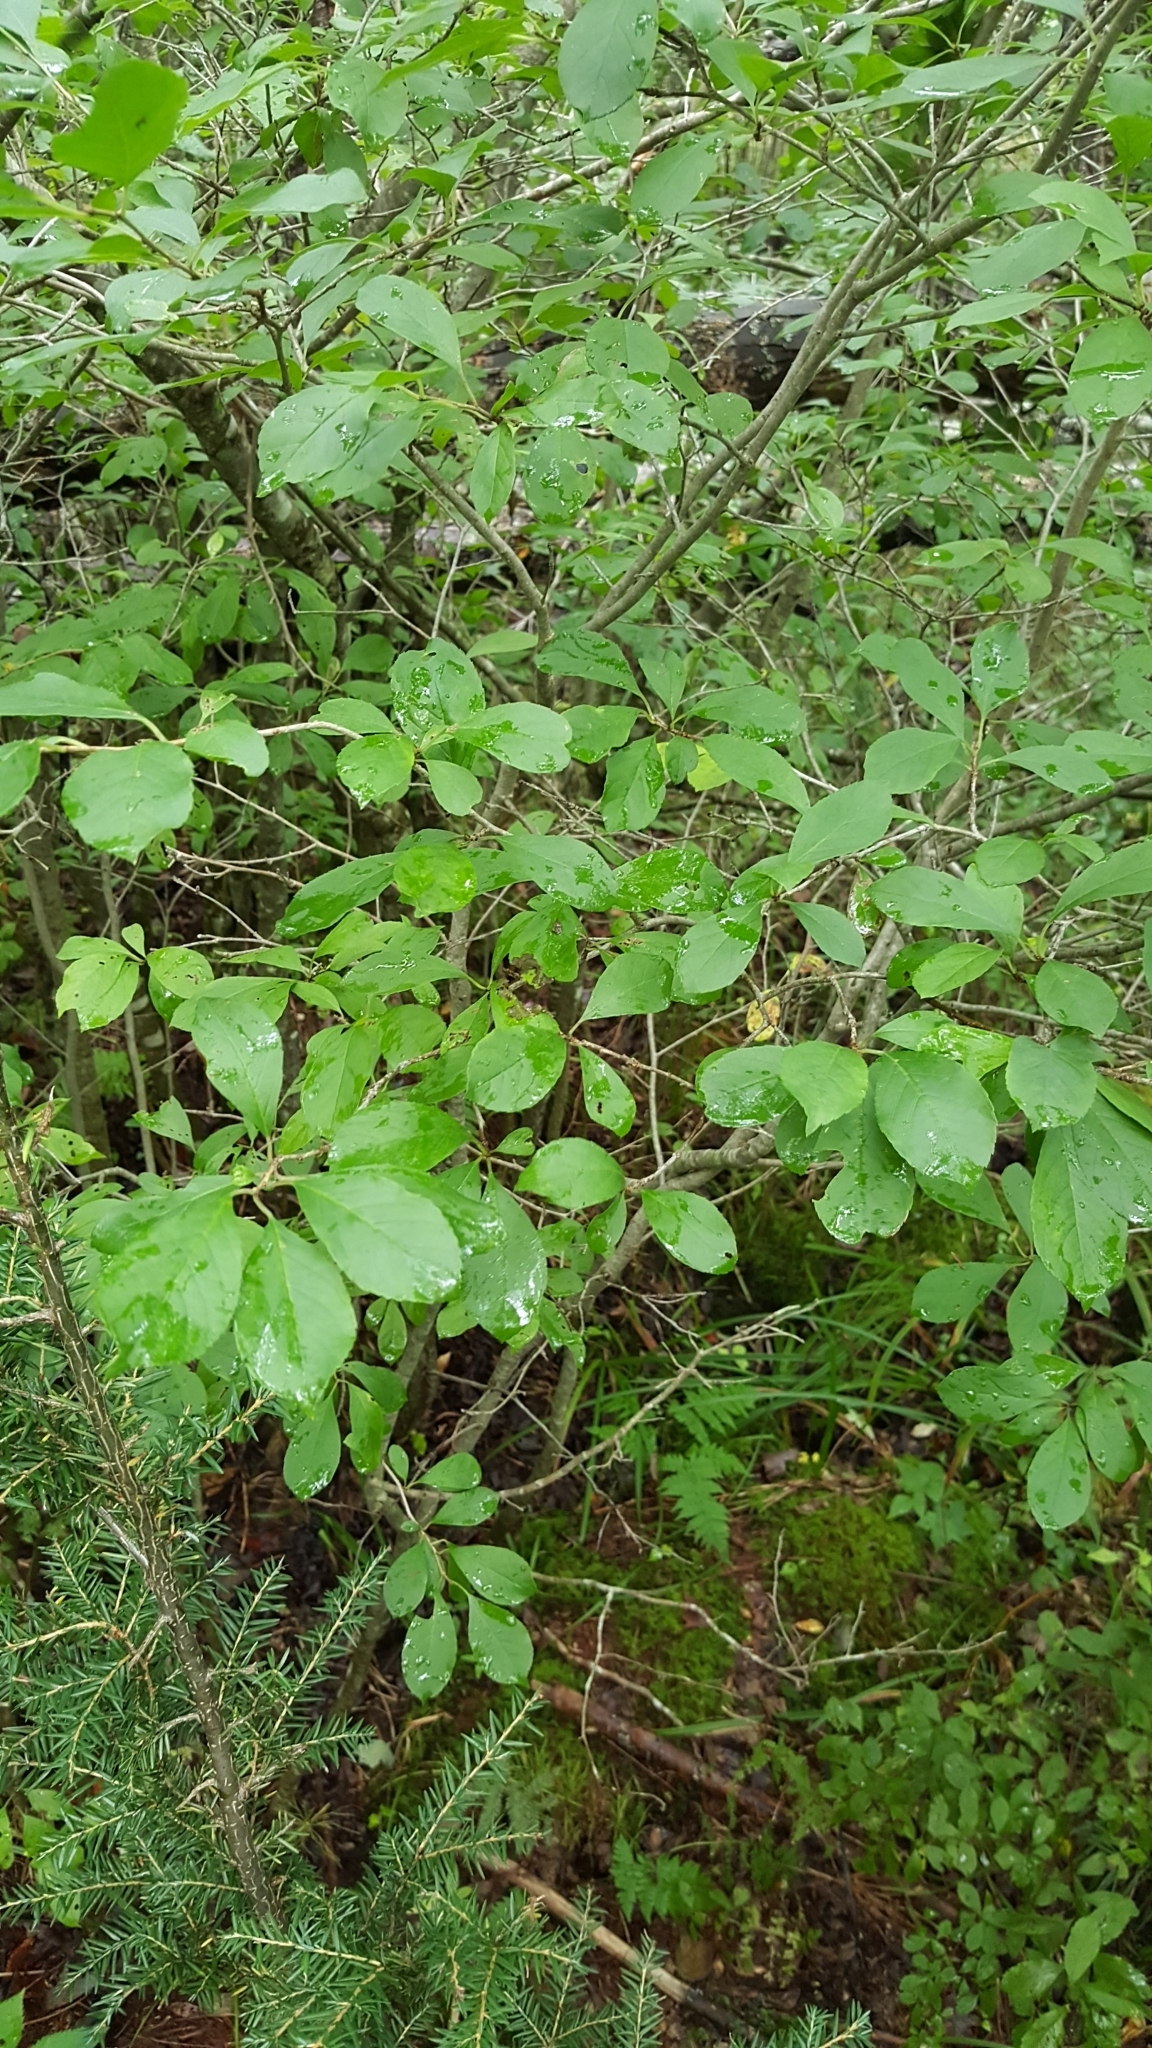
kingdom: Plantae
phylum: Tracheophyta
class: Magnoliopsida
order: Aquifoliales
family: Aquifoliaceae
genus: Ilex
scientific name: Ilex verticillata
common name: Virginia winterberry
